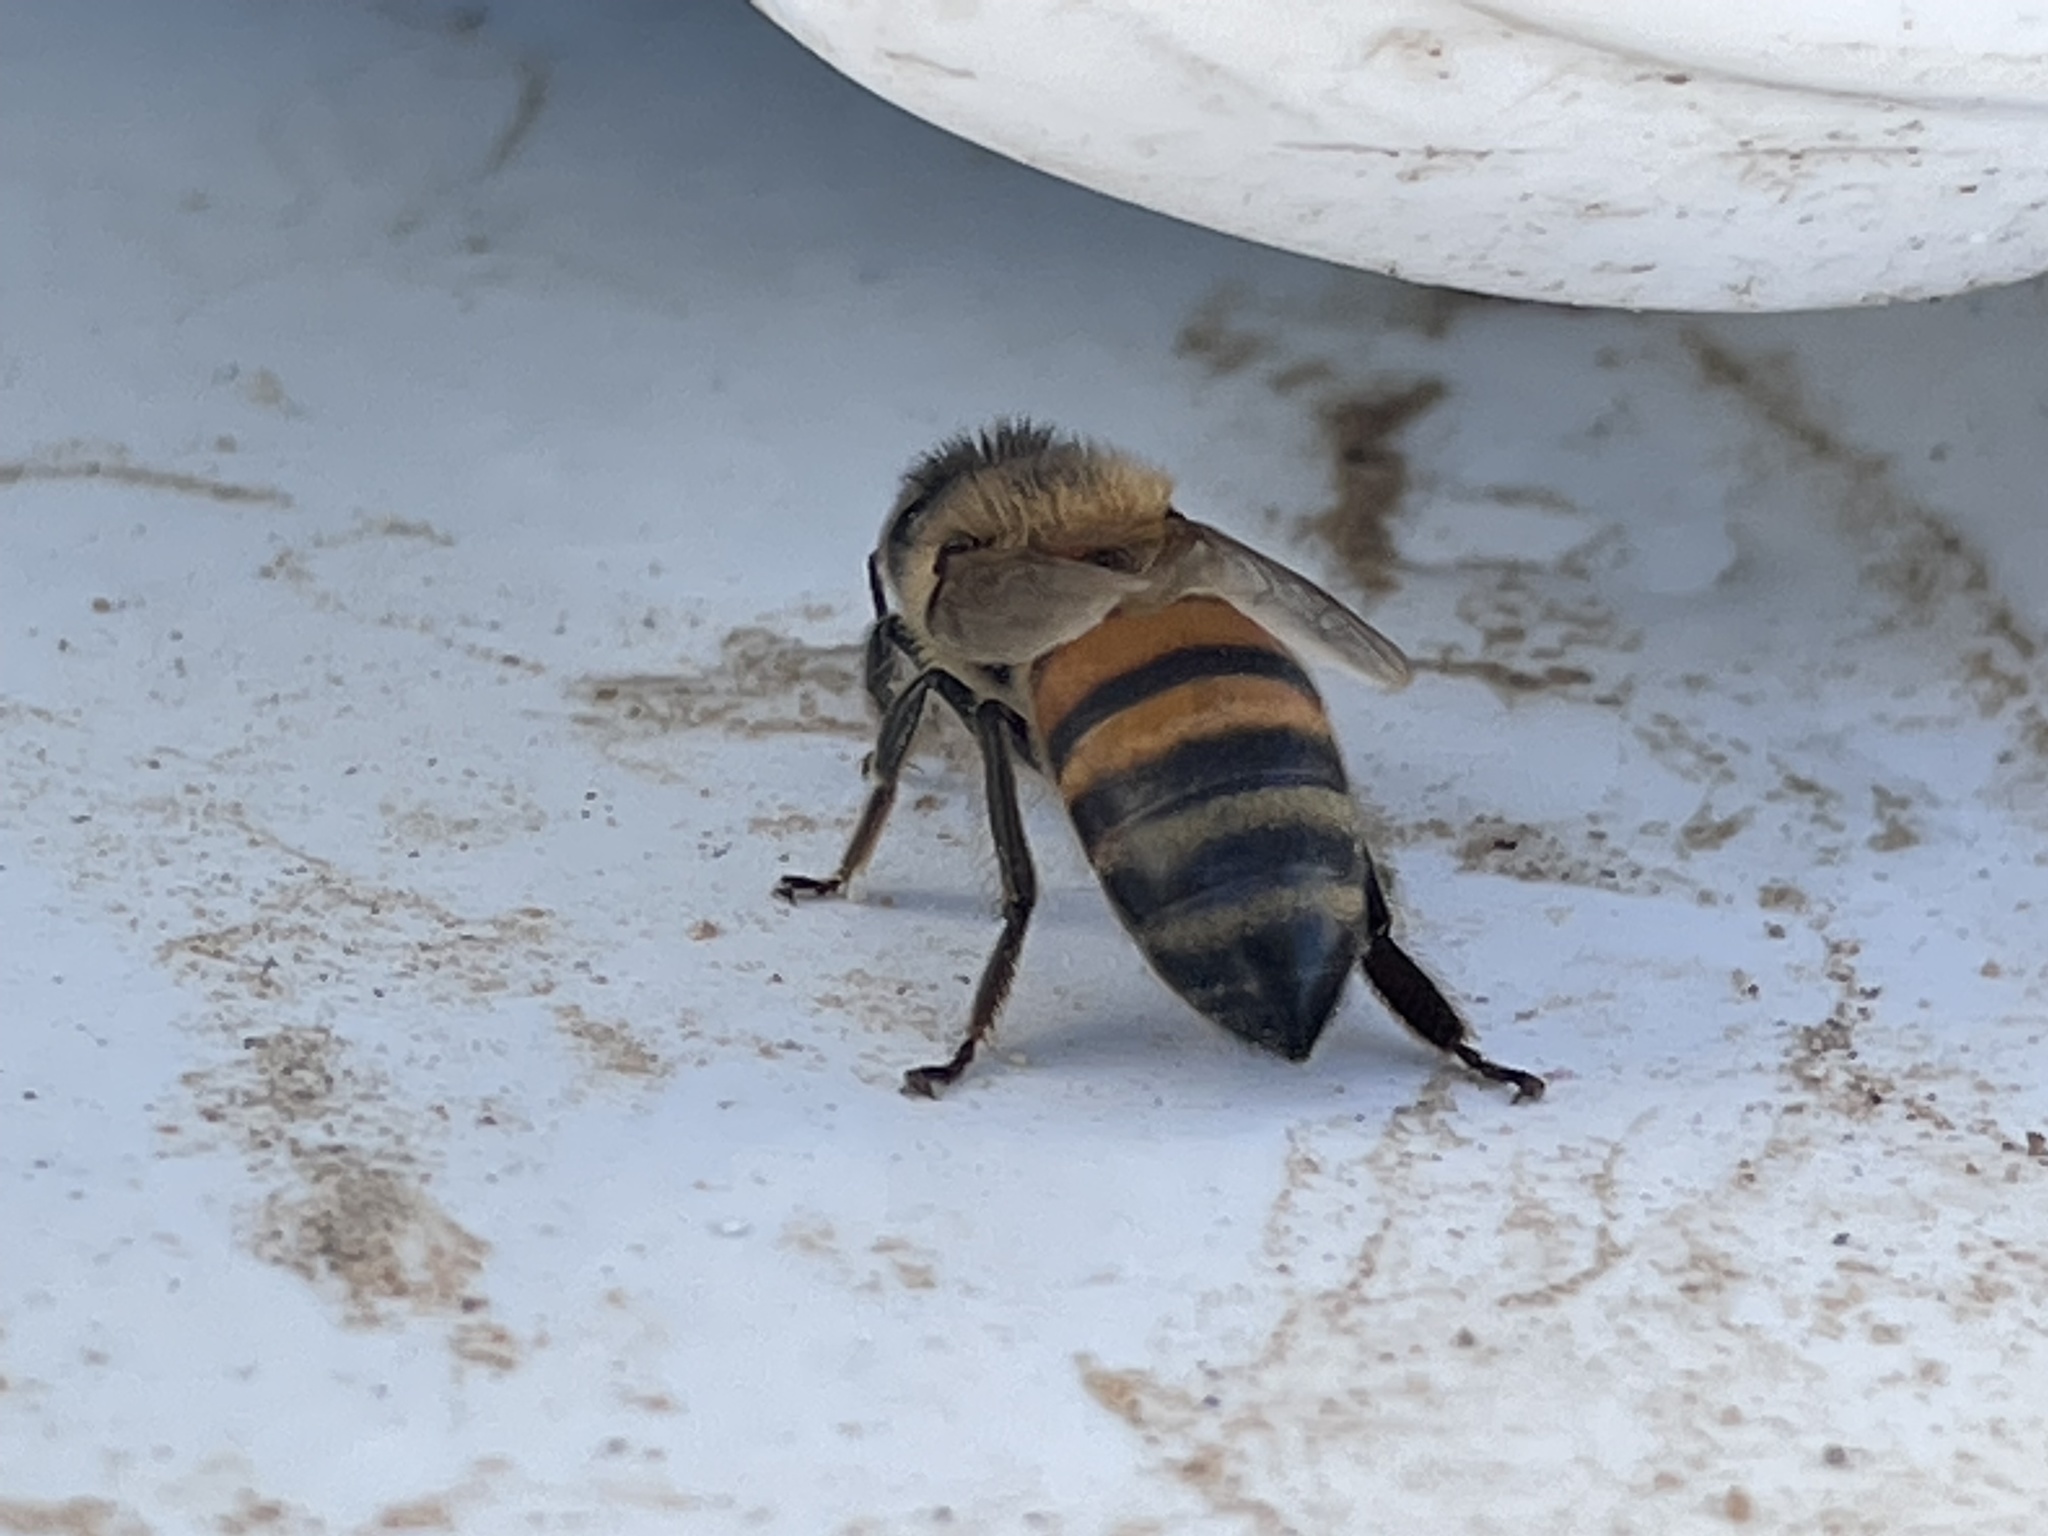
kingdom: Animalia
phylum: Arthropoda
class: Insecta
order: Hymenoptera
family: Apidae
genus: Apis
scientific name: Apis mellifera
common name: Honey bee
